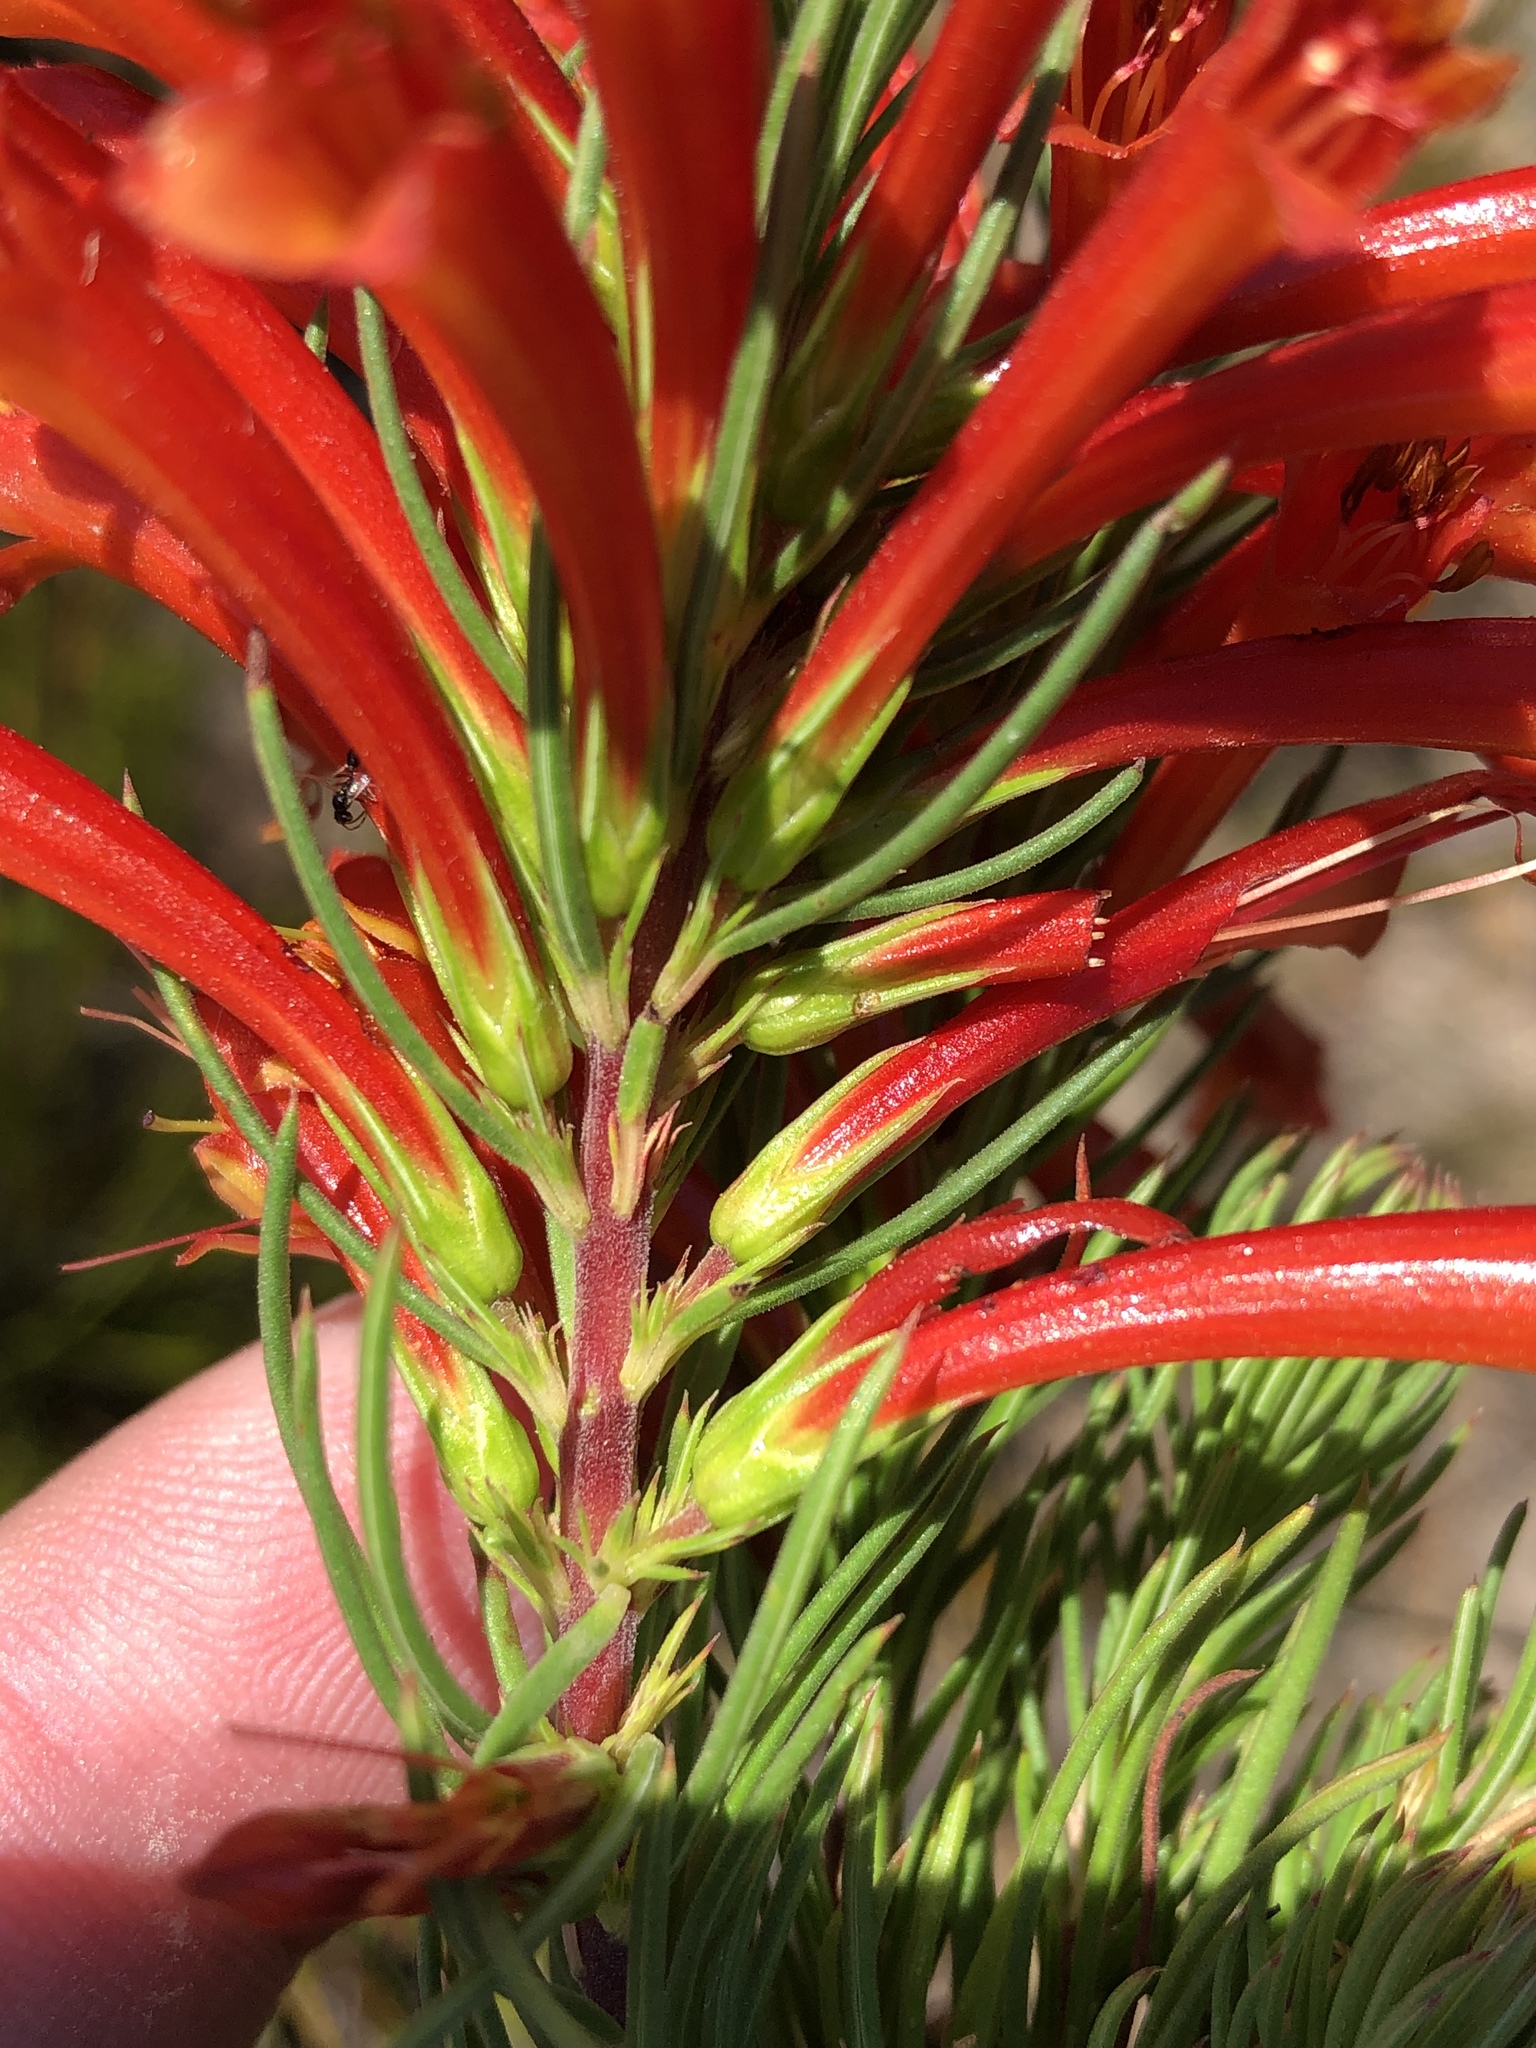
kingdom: Plantae
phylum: Tracheophyta
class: Magnoliopsida
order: Ericales
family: Ericaceae
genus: Erica
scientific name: Erica grandiflora
